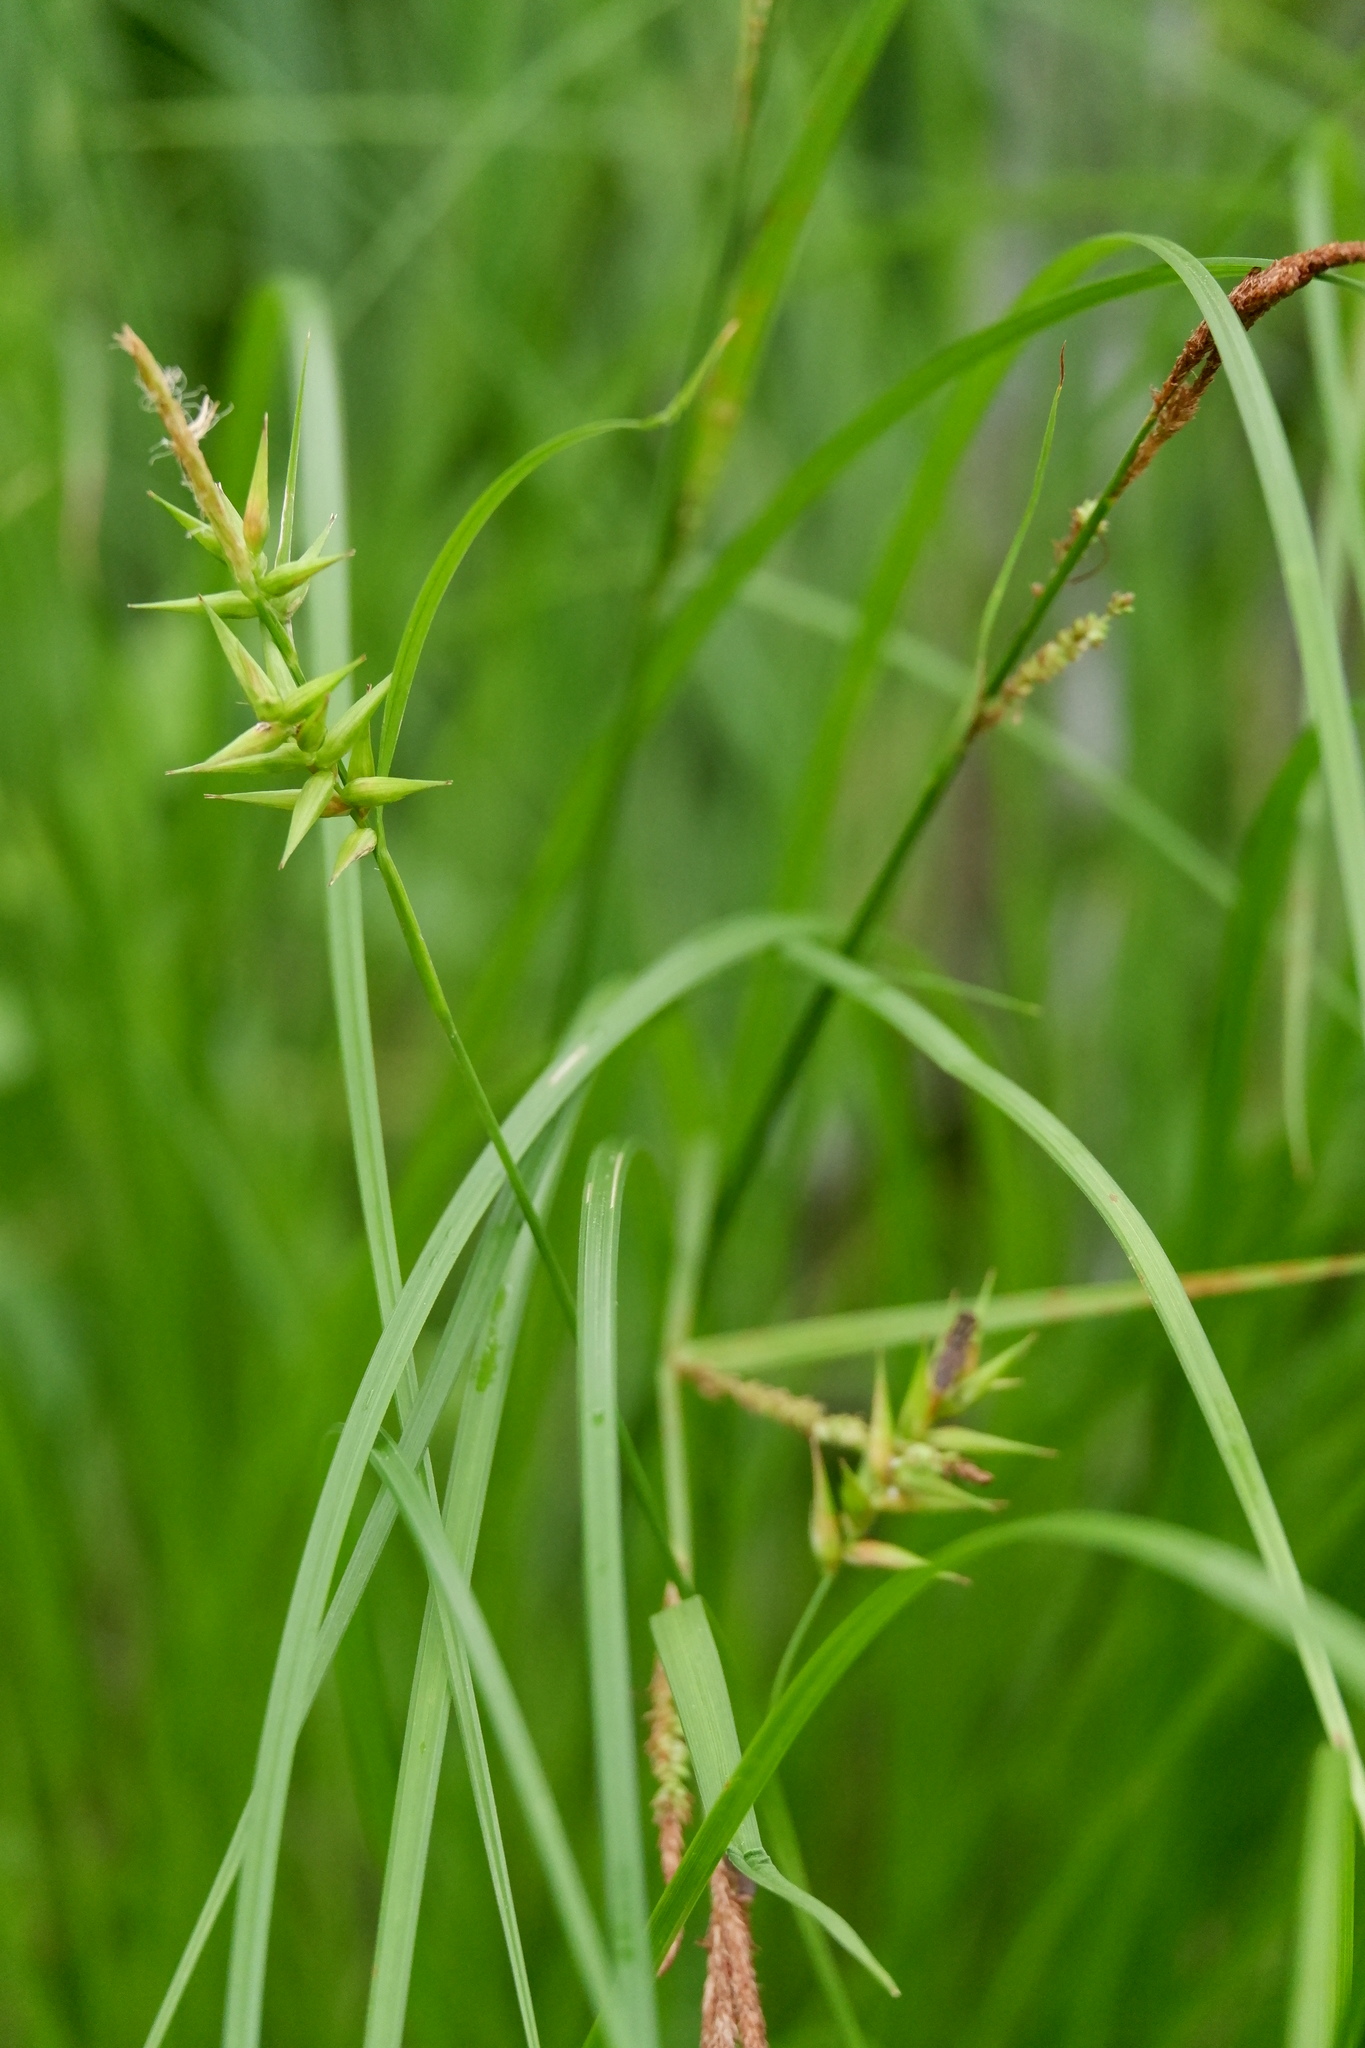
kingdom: Plantae
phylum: Tracheophyta
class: Liliopsida
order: Poales
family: Cyperaceae
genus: Carex
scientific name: Carex folliculata
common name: Northern long sedge
